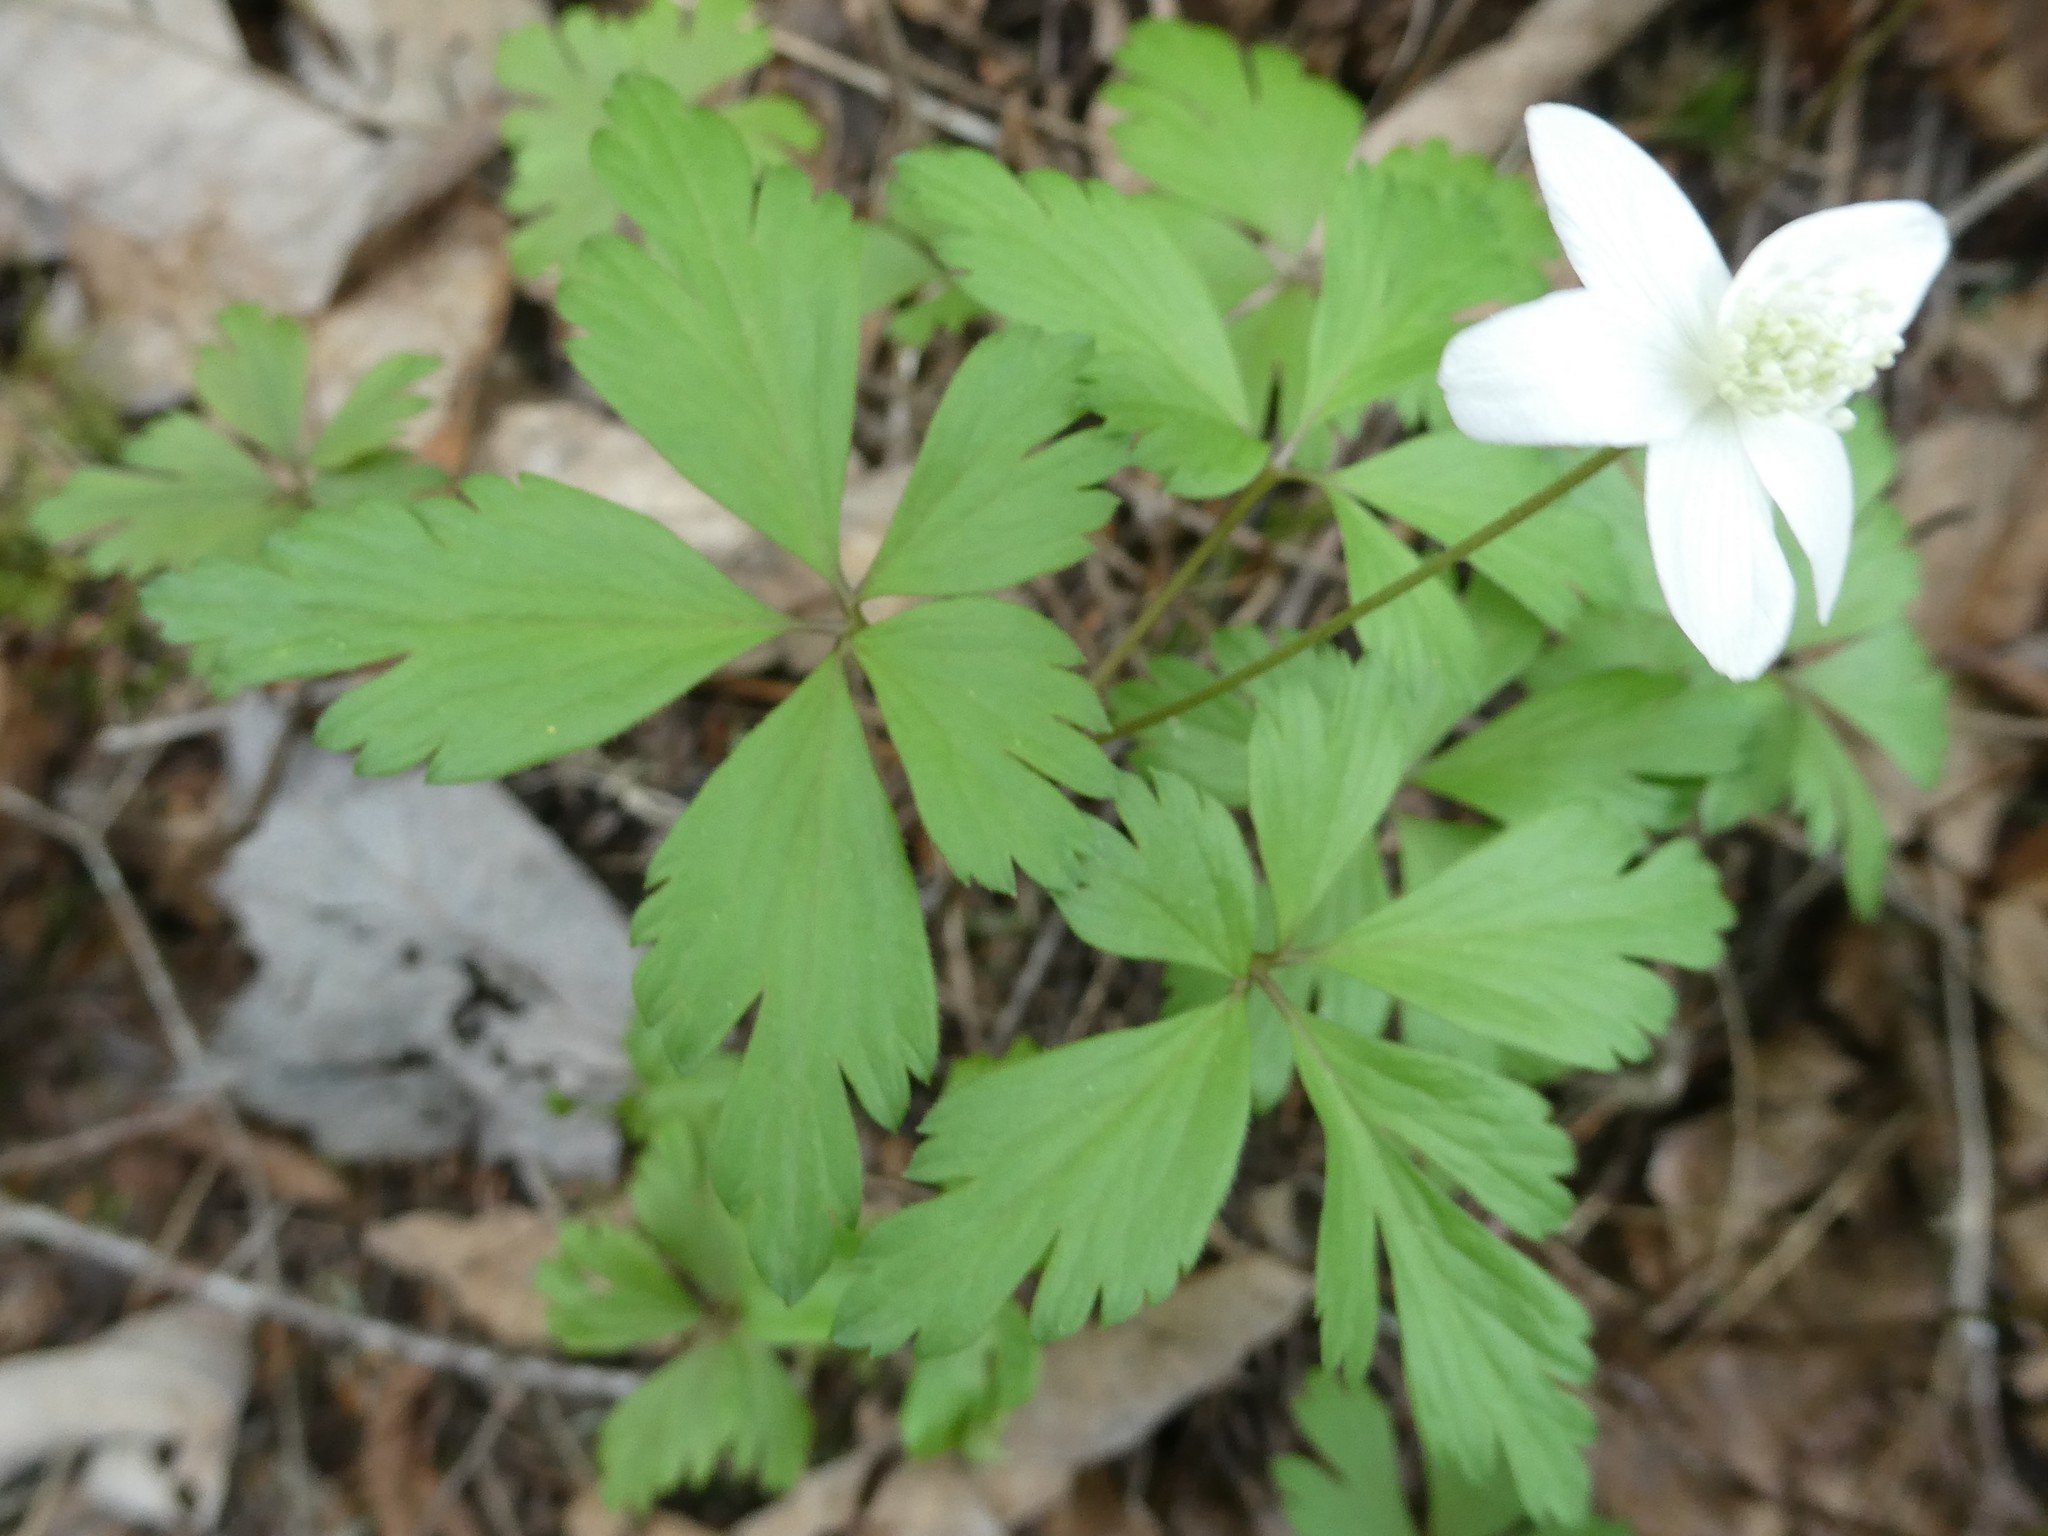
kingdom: Plantae
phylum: Tracheophyta
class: Magnoliopsida
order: Ranunculales
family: Ranunculaceae
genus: Anemone
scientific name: Anemone quinquefolia
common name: Wood anemone
